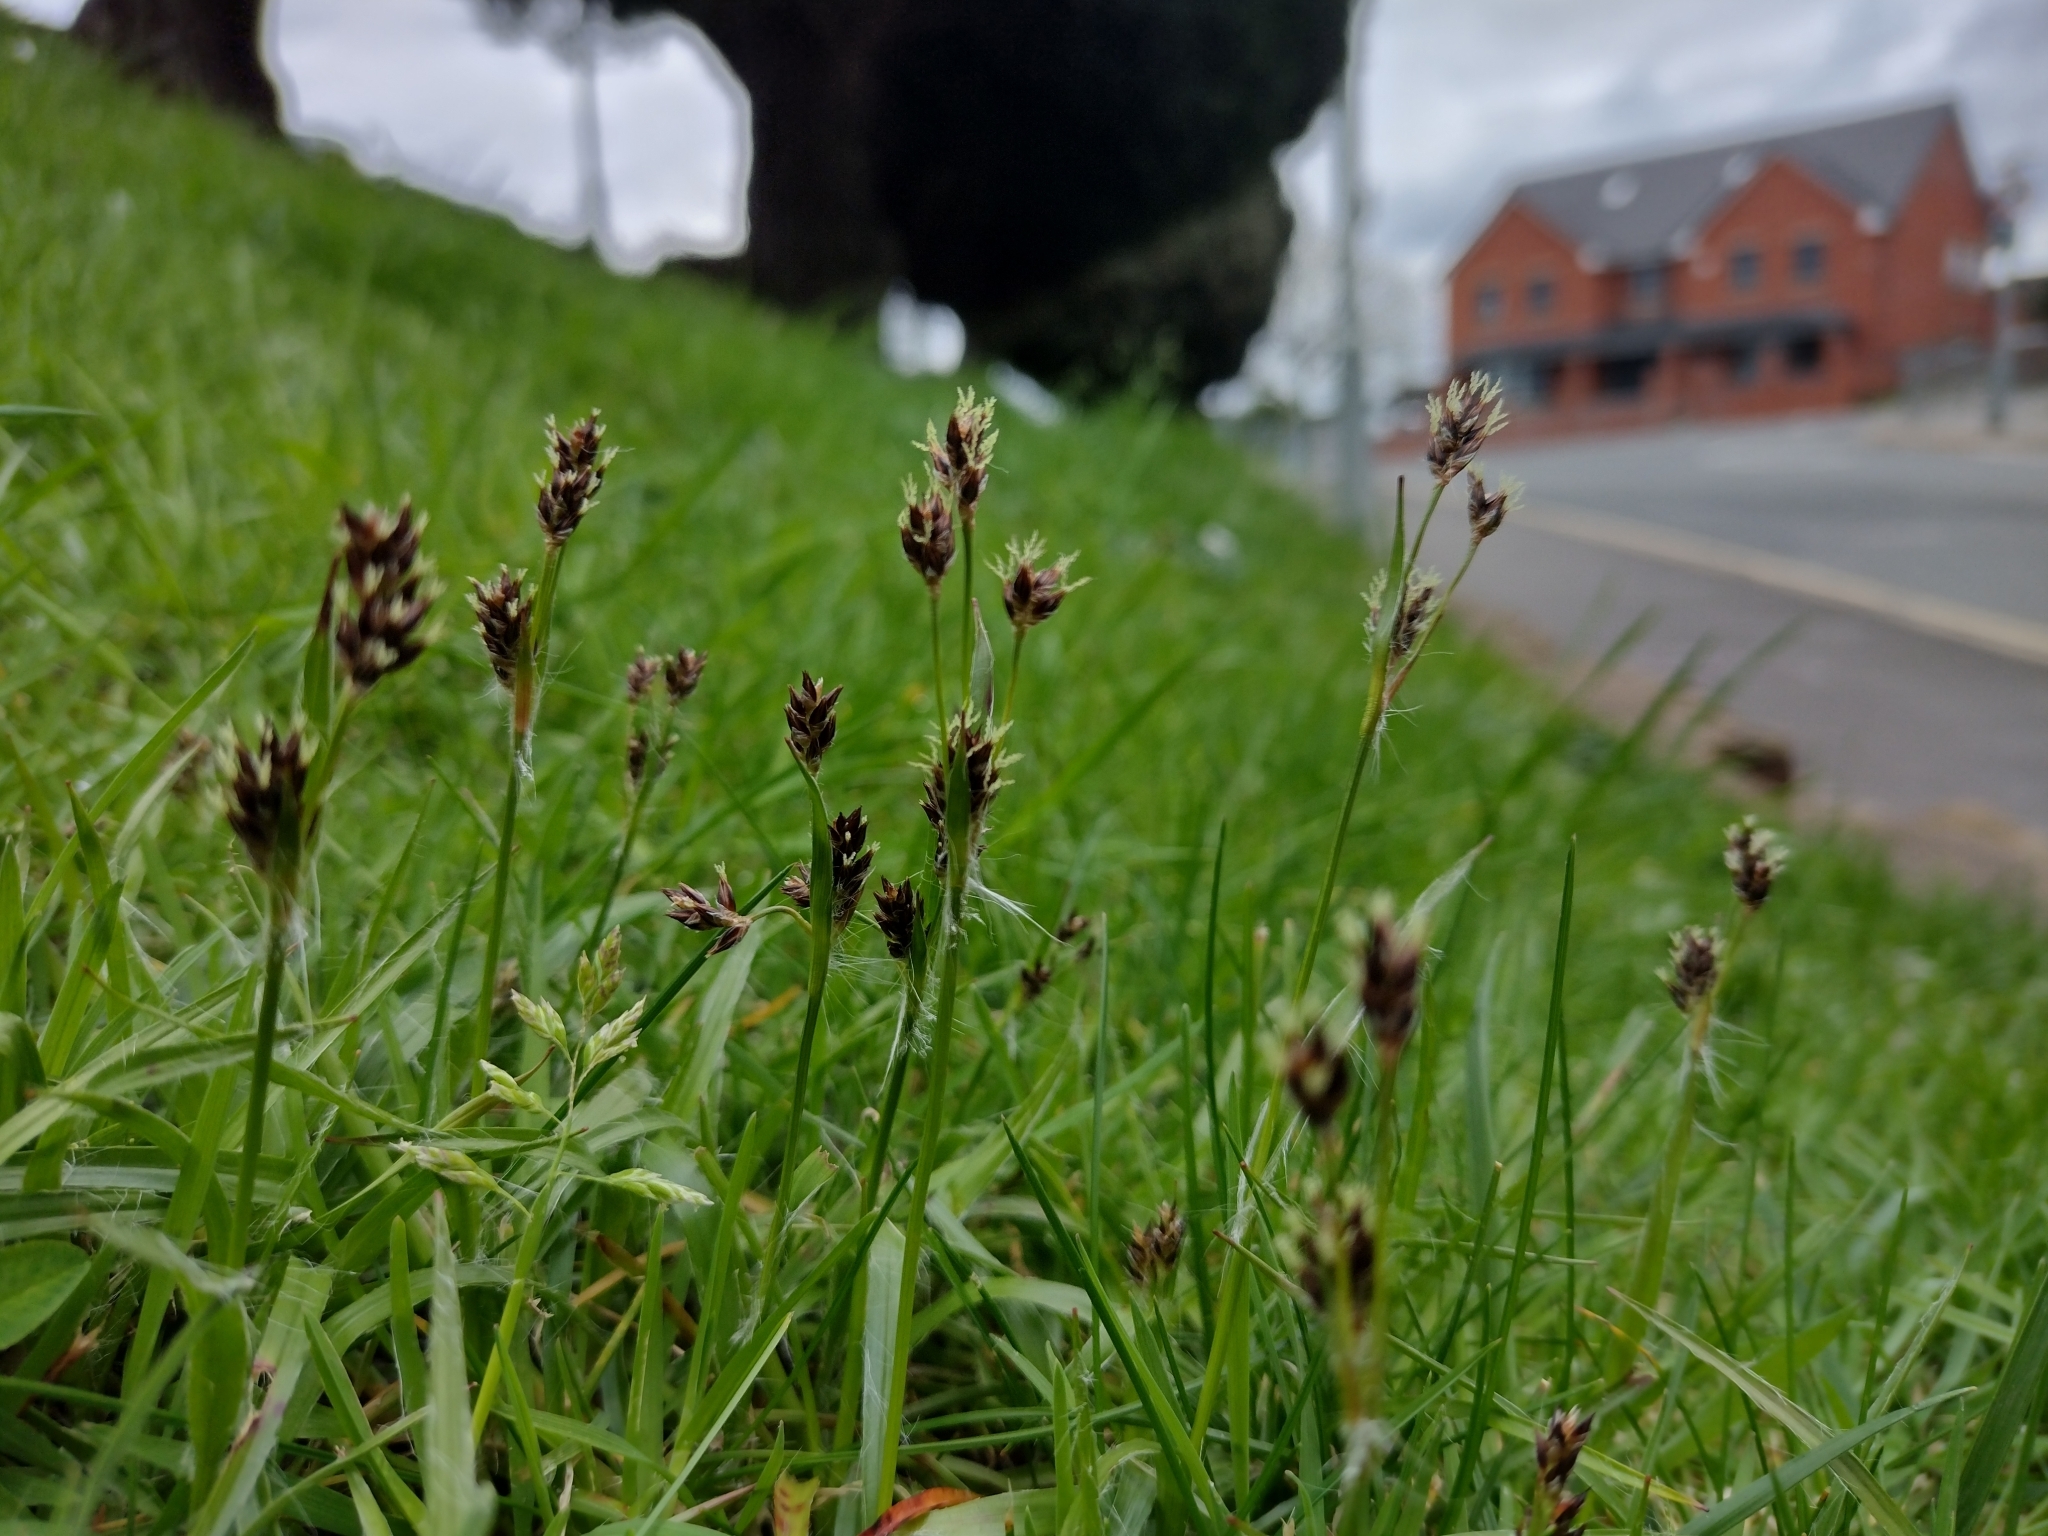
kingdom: Plantae
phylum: Tracheophyta
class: Liliopsida
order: Poales
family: Juncaceae
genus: Luzula
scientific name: Luzula campestris
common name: Field wood-rush
